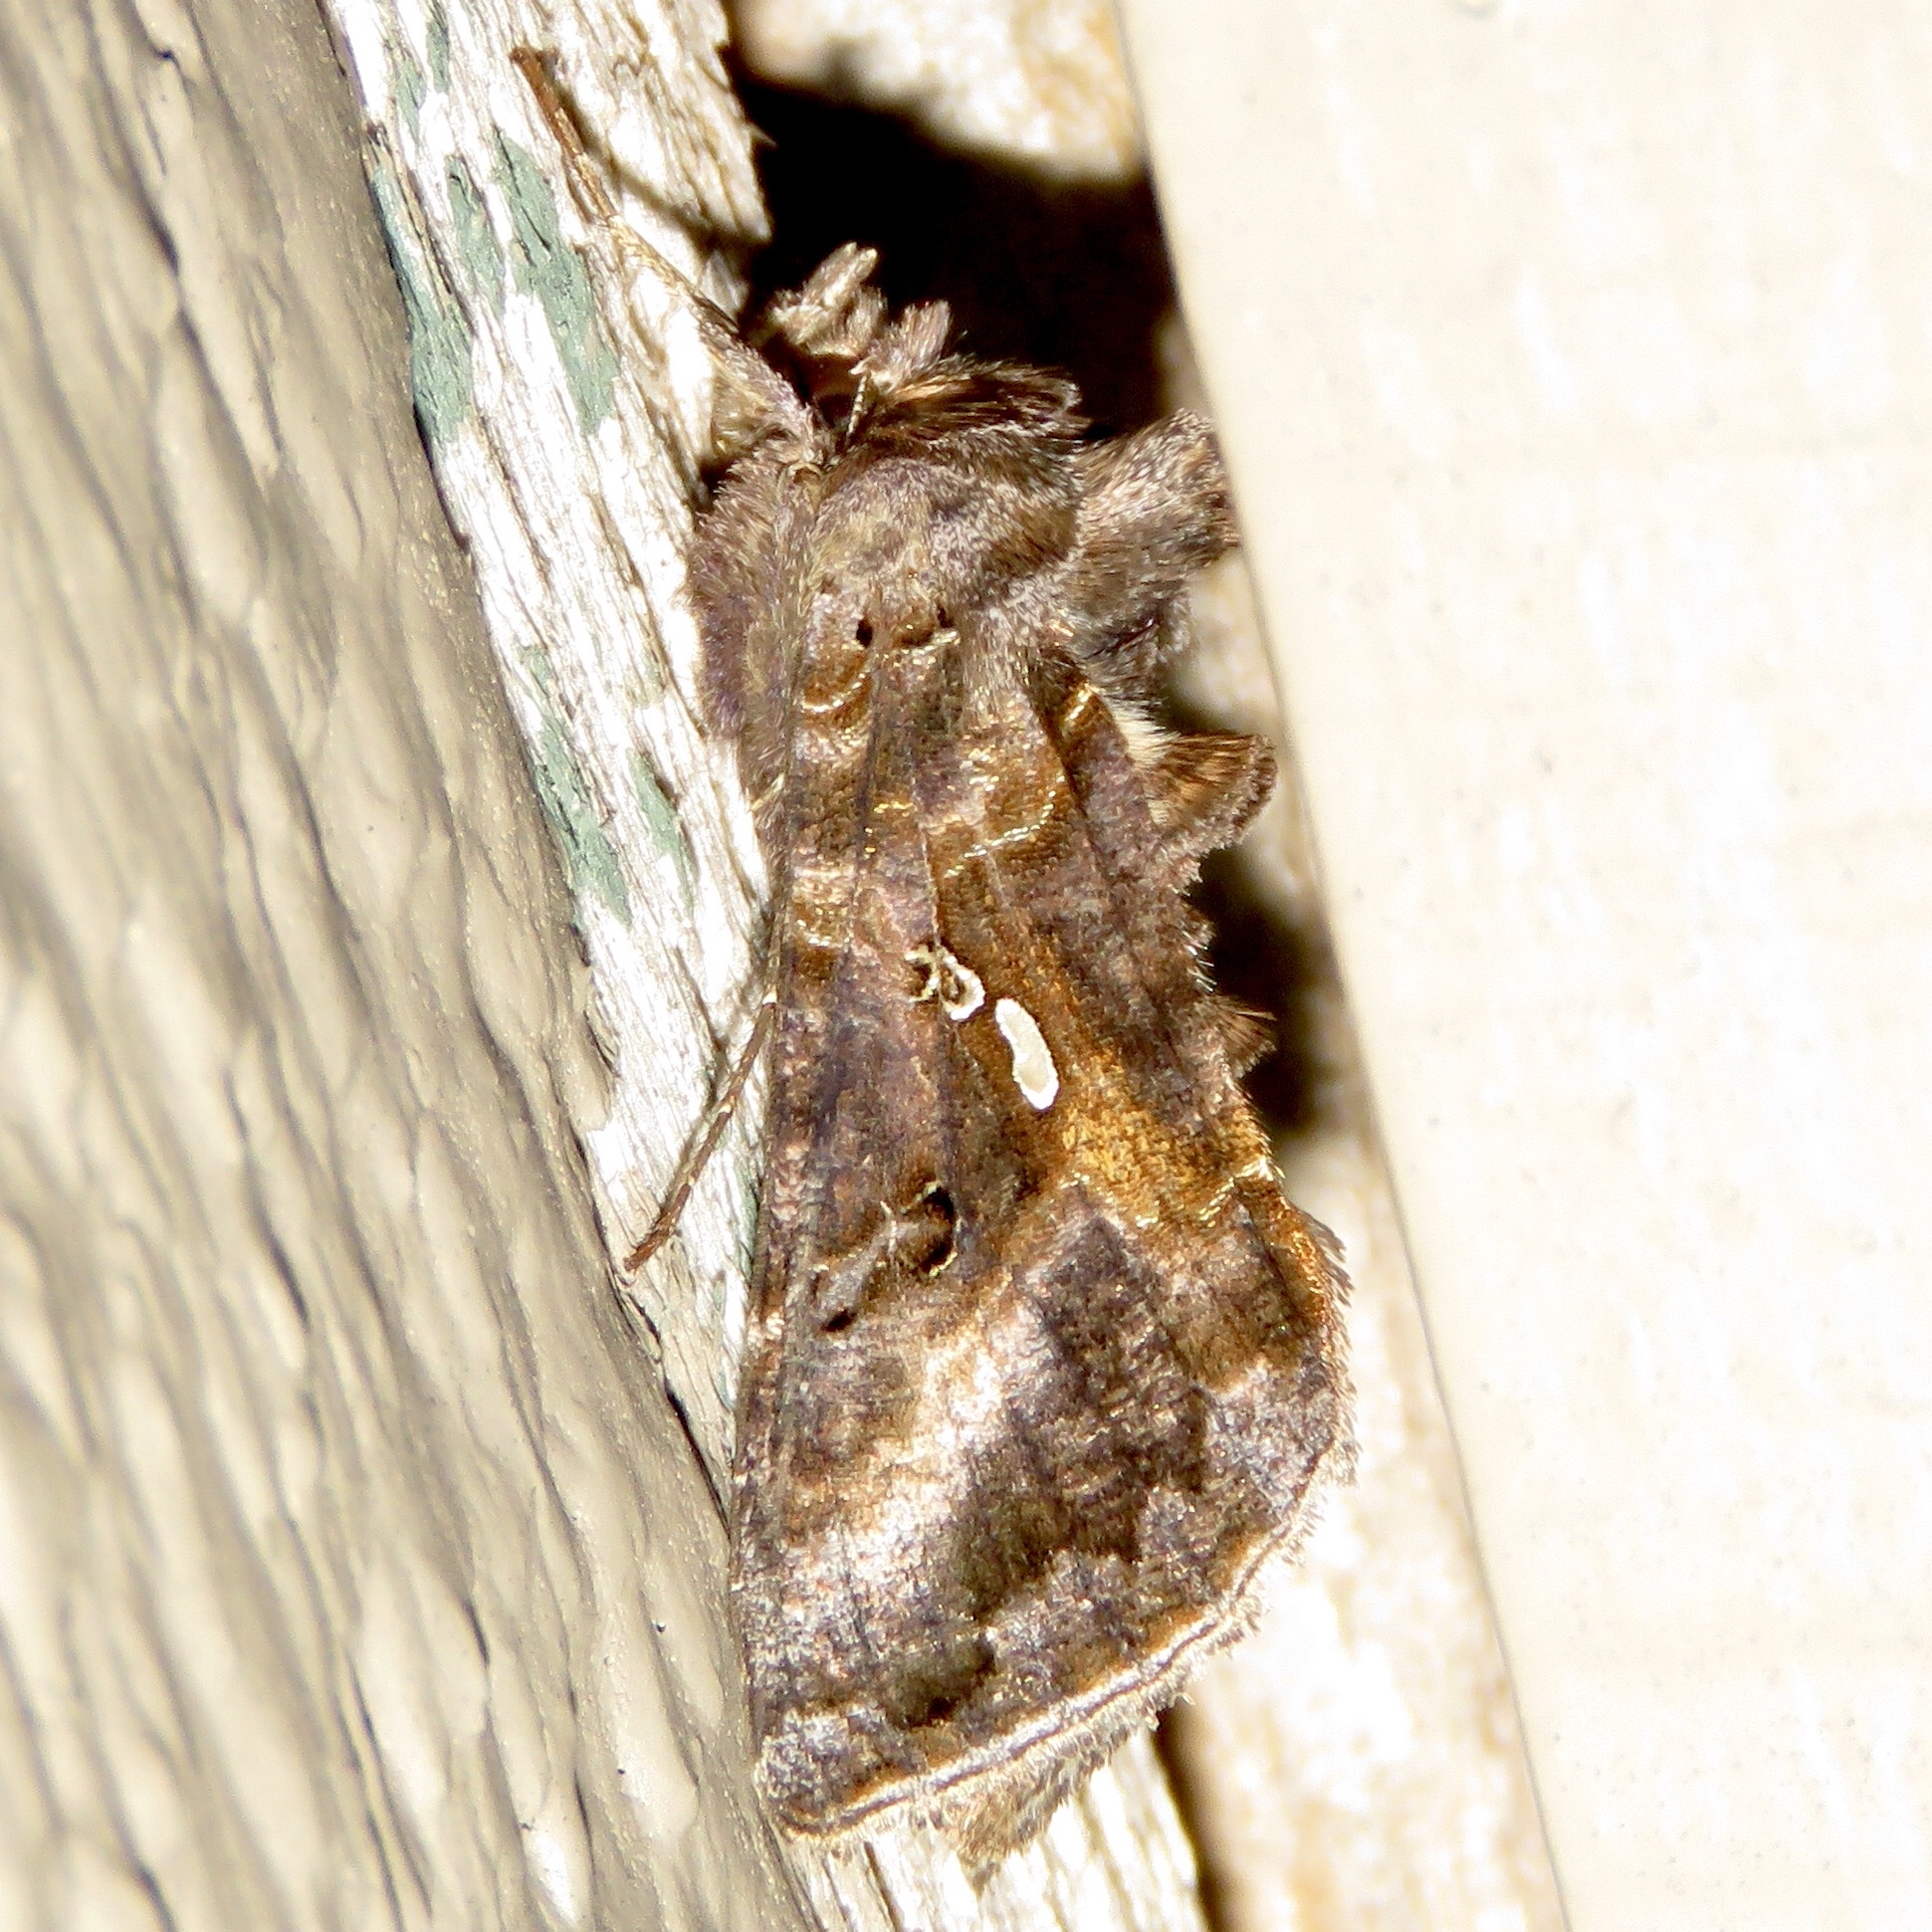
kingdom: Animalia
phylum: Arthropoda
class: Insecta
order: Lepidoptera
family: Noctuidae
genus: Autographa
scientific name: Autographa precationis
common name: Common looper moth
